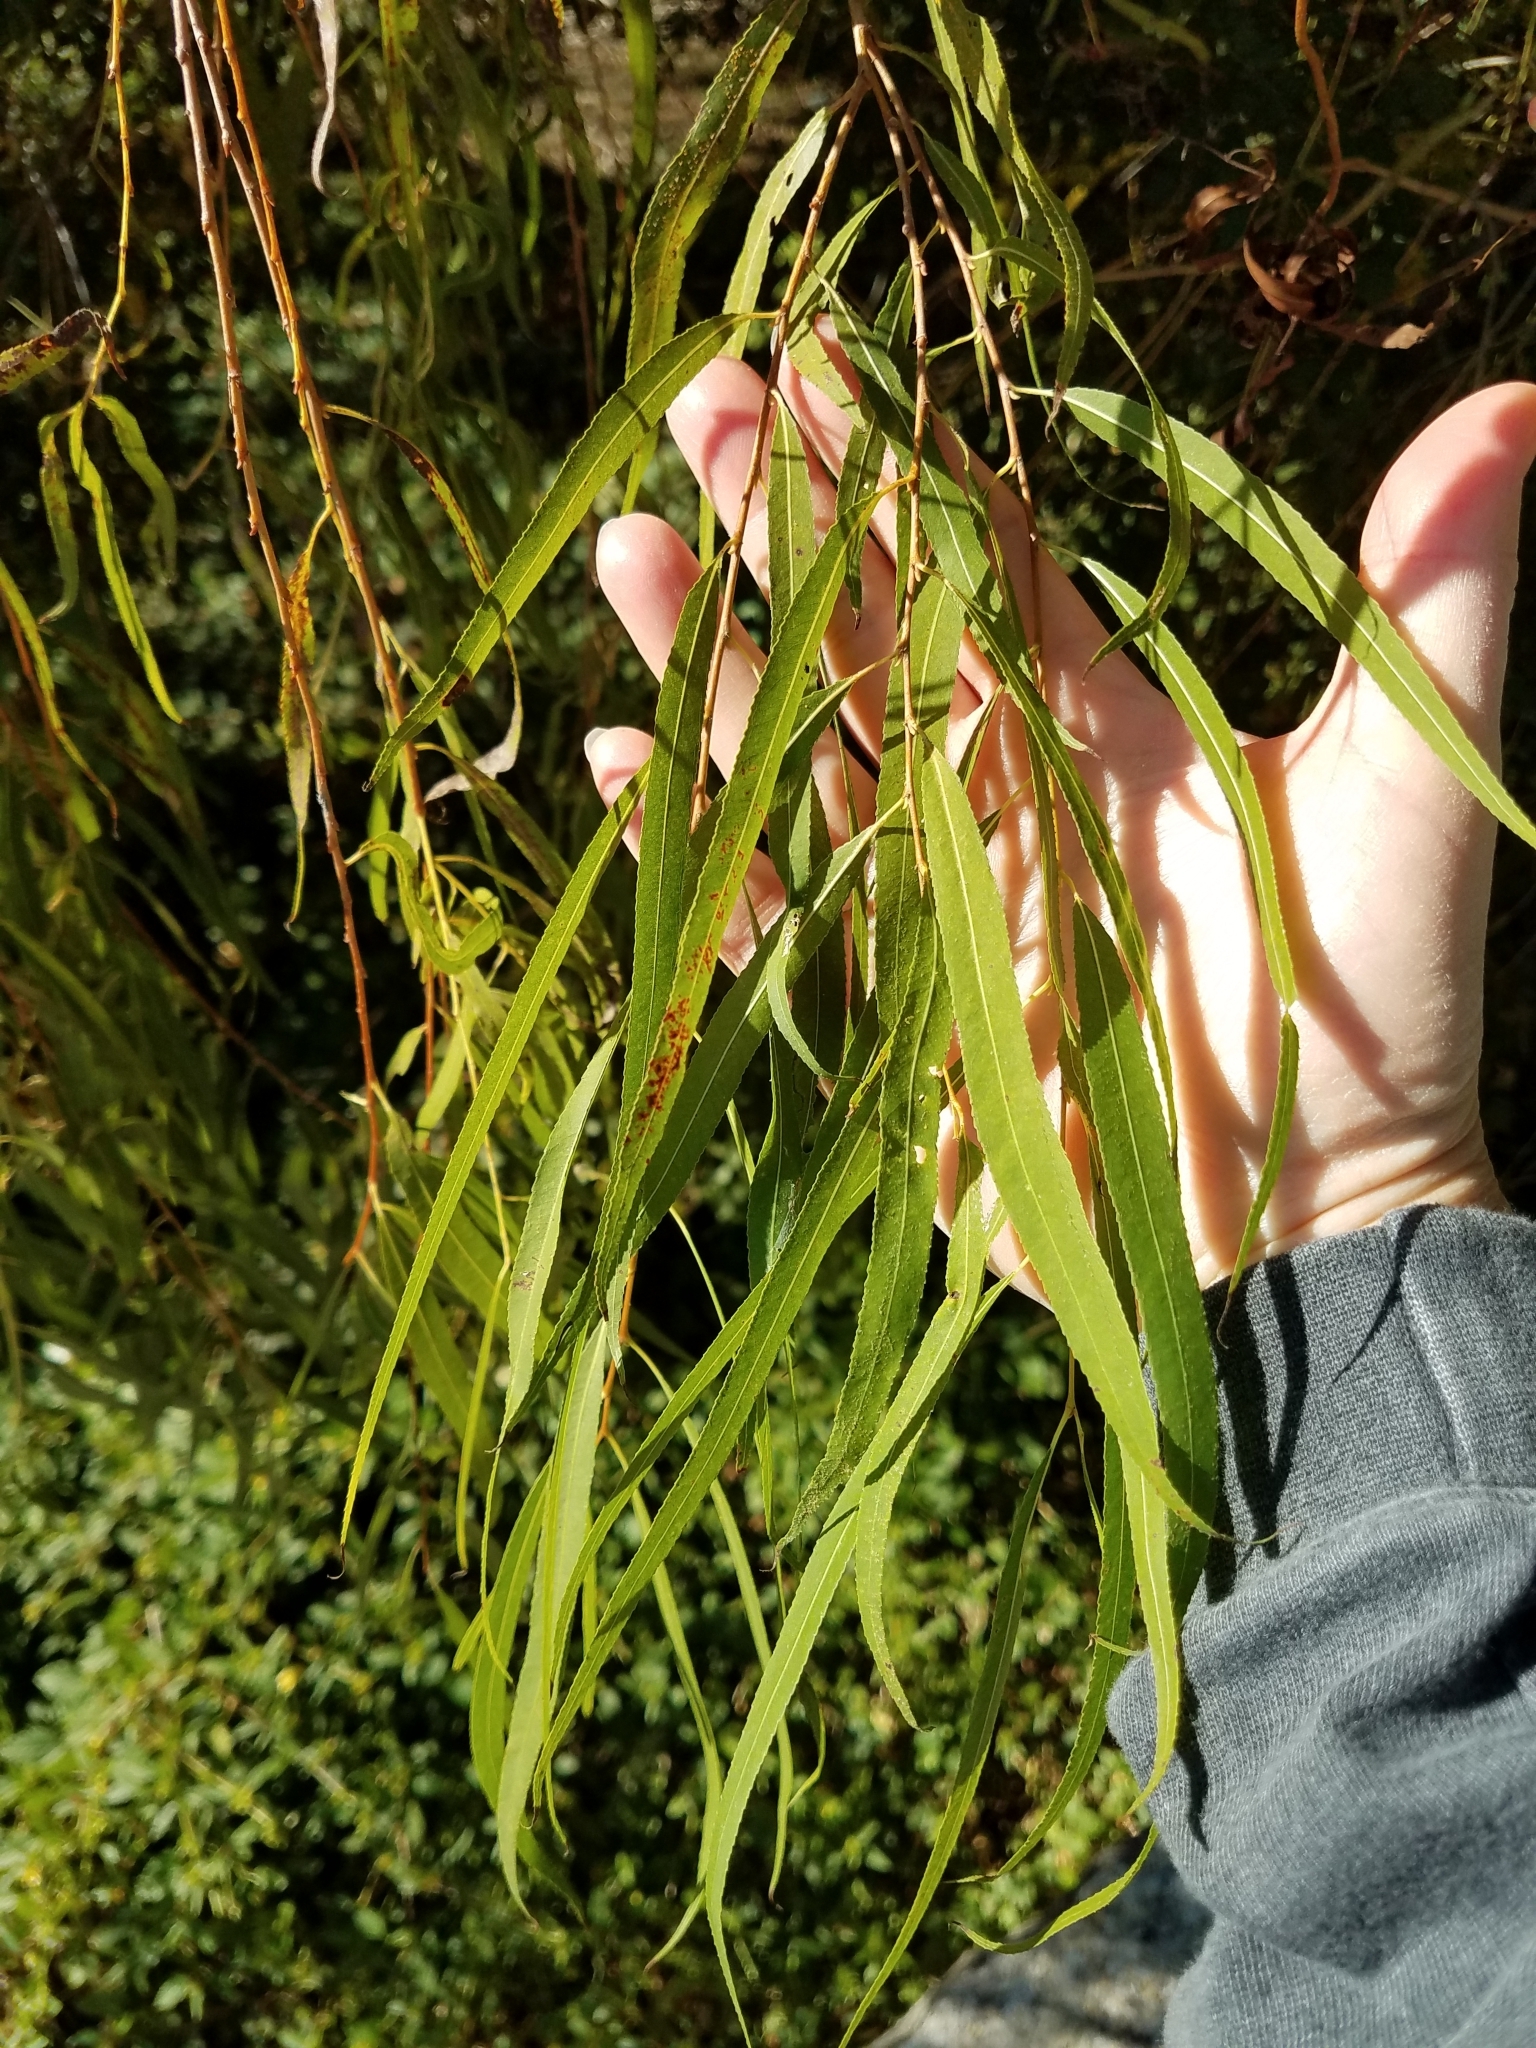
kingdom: Plantae
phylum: Tracheophyta
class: Magnoliopsida
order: Malpighiales
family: Salicaceae
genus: Salix
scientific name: Salix nigra
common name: Black willow
